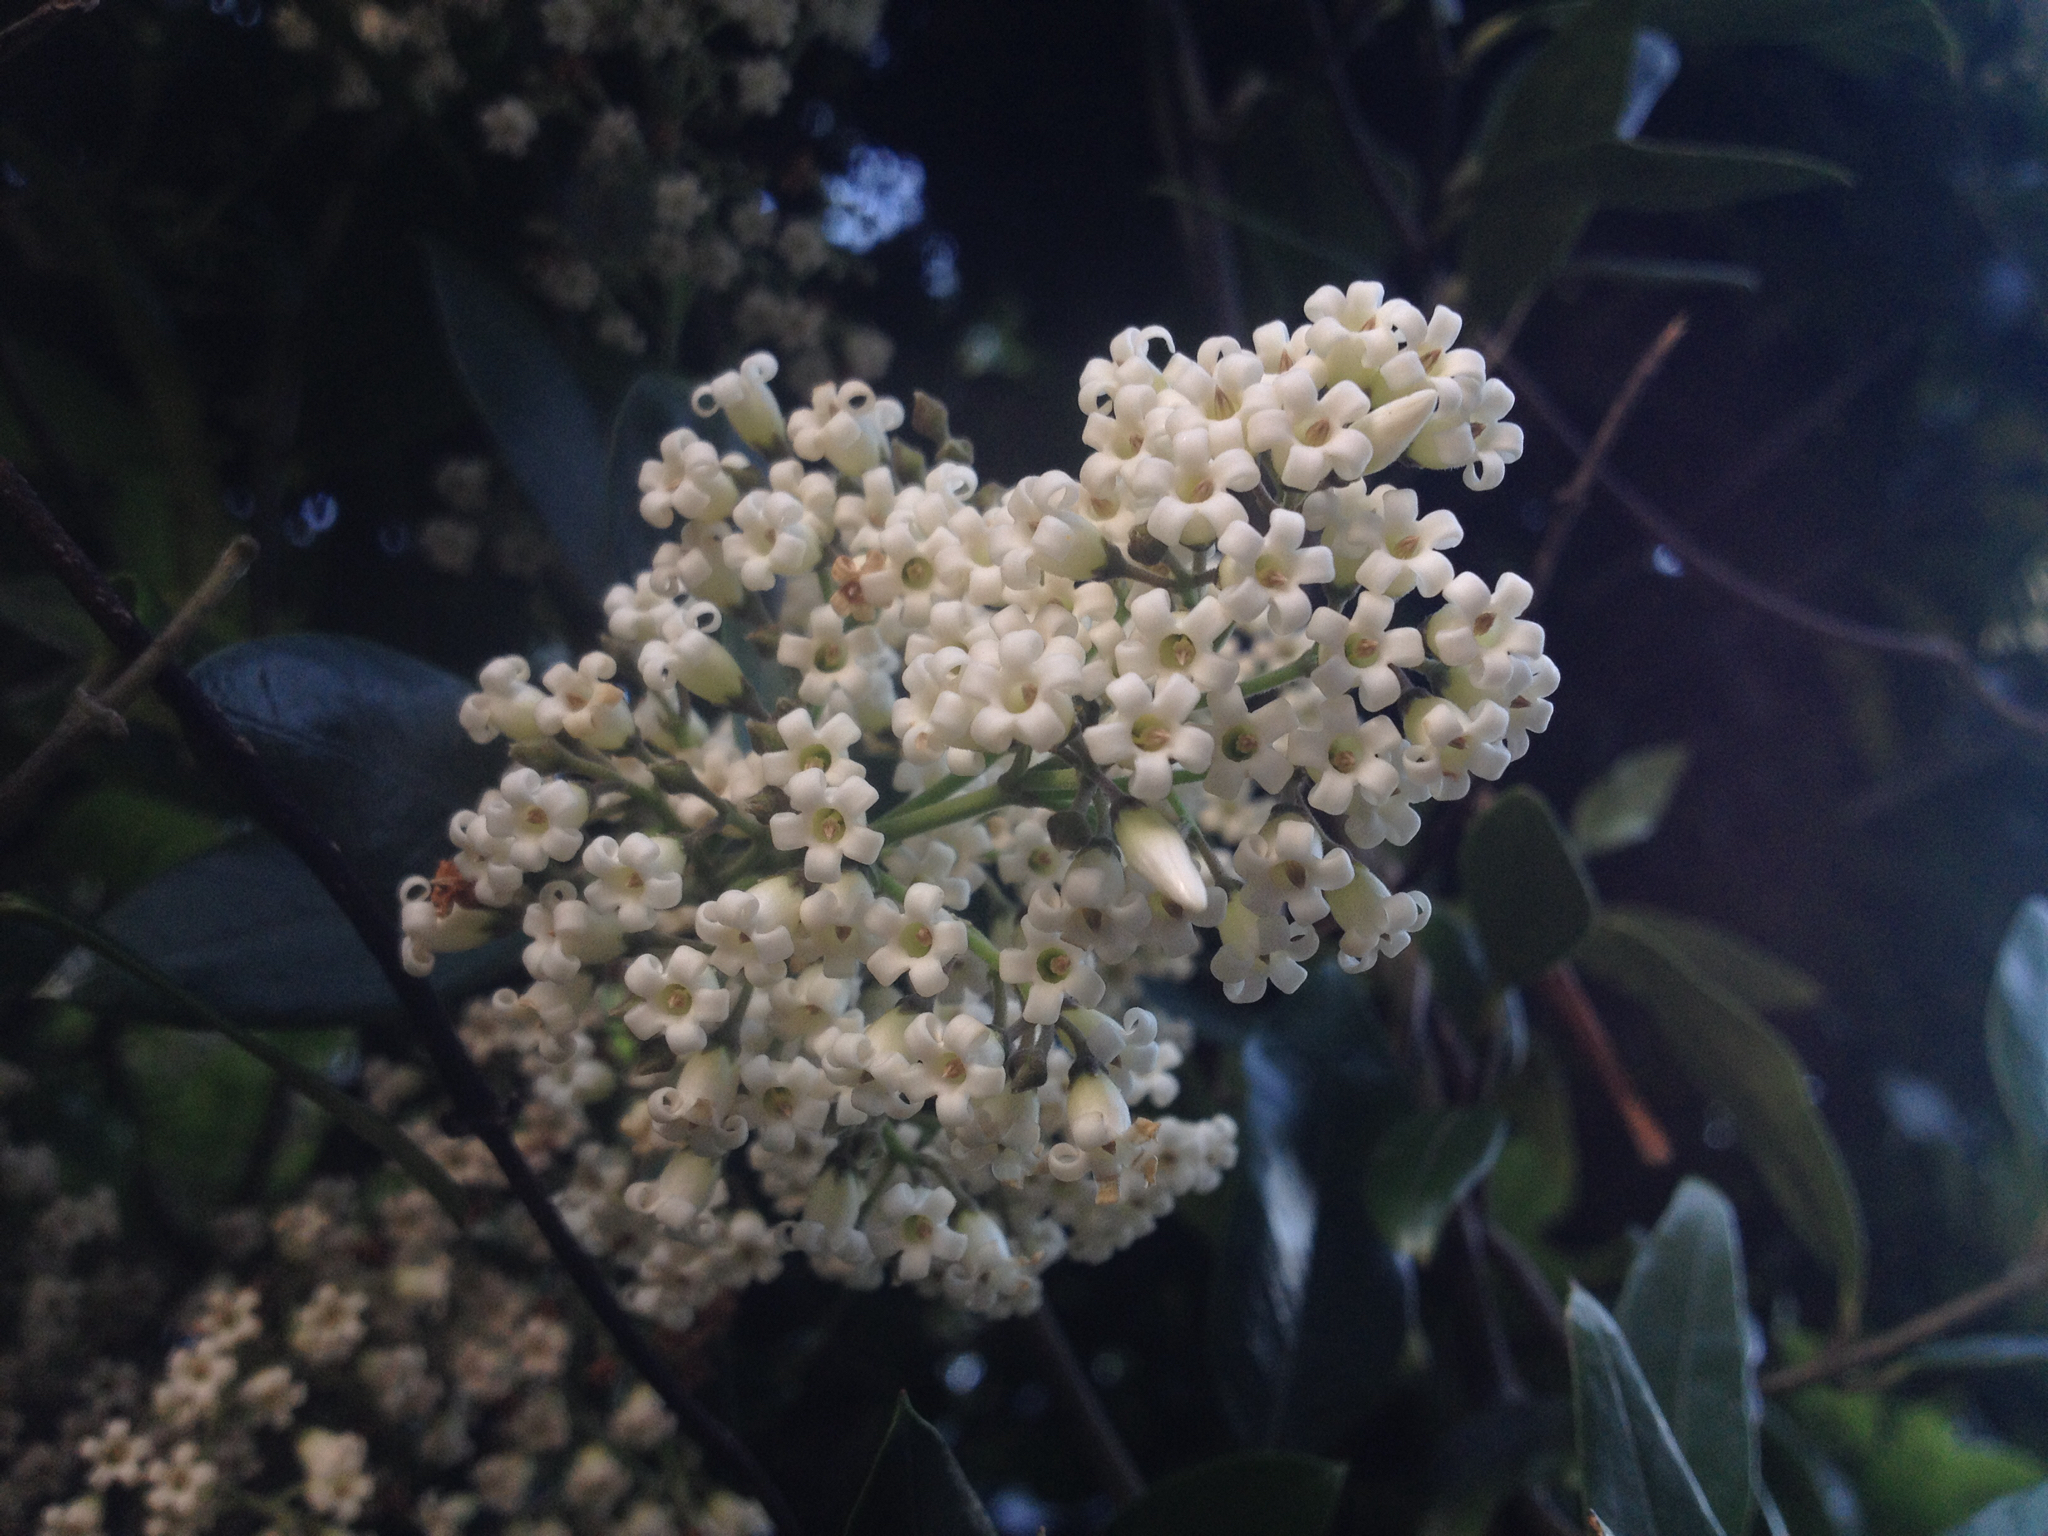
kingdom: Plantae
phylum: Tracheophyta
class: Magnoliopsida
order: Gentianales
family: Apocynaceae
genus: Parsonsia
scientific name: Parsonsia heterophylla
